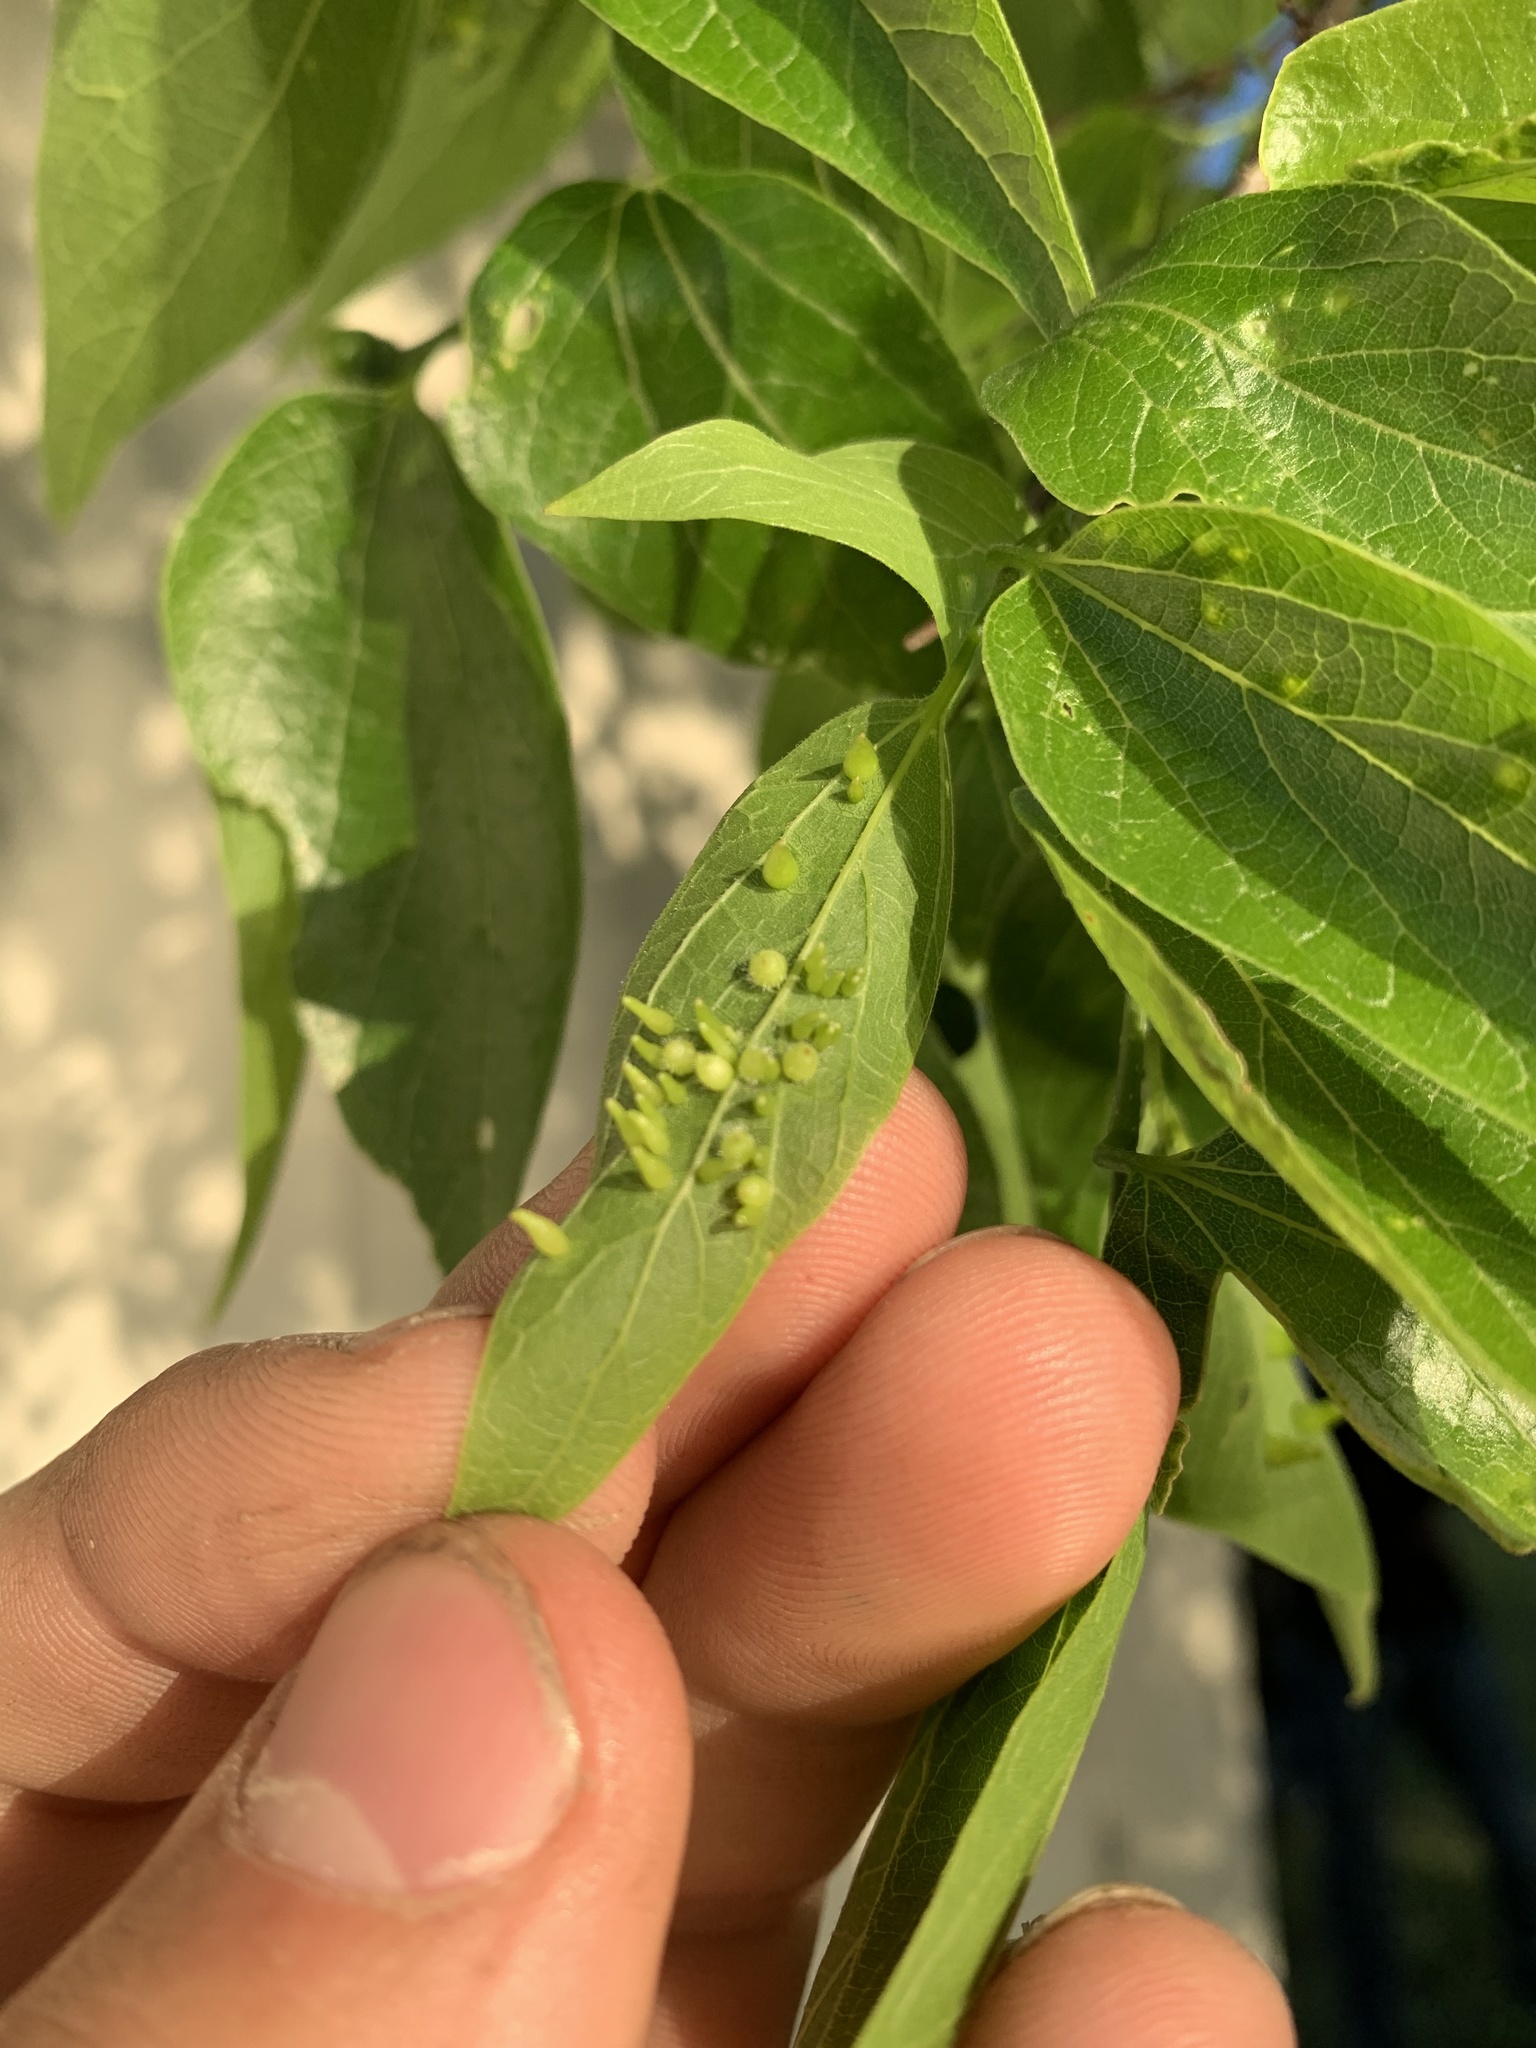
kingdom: Animalia
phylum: Arthropoda
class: Insecta
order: Diptera
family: Cecidomyiidae
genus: Celticecis
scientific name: Celticecis spiniformis
